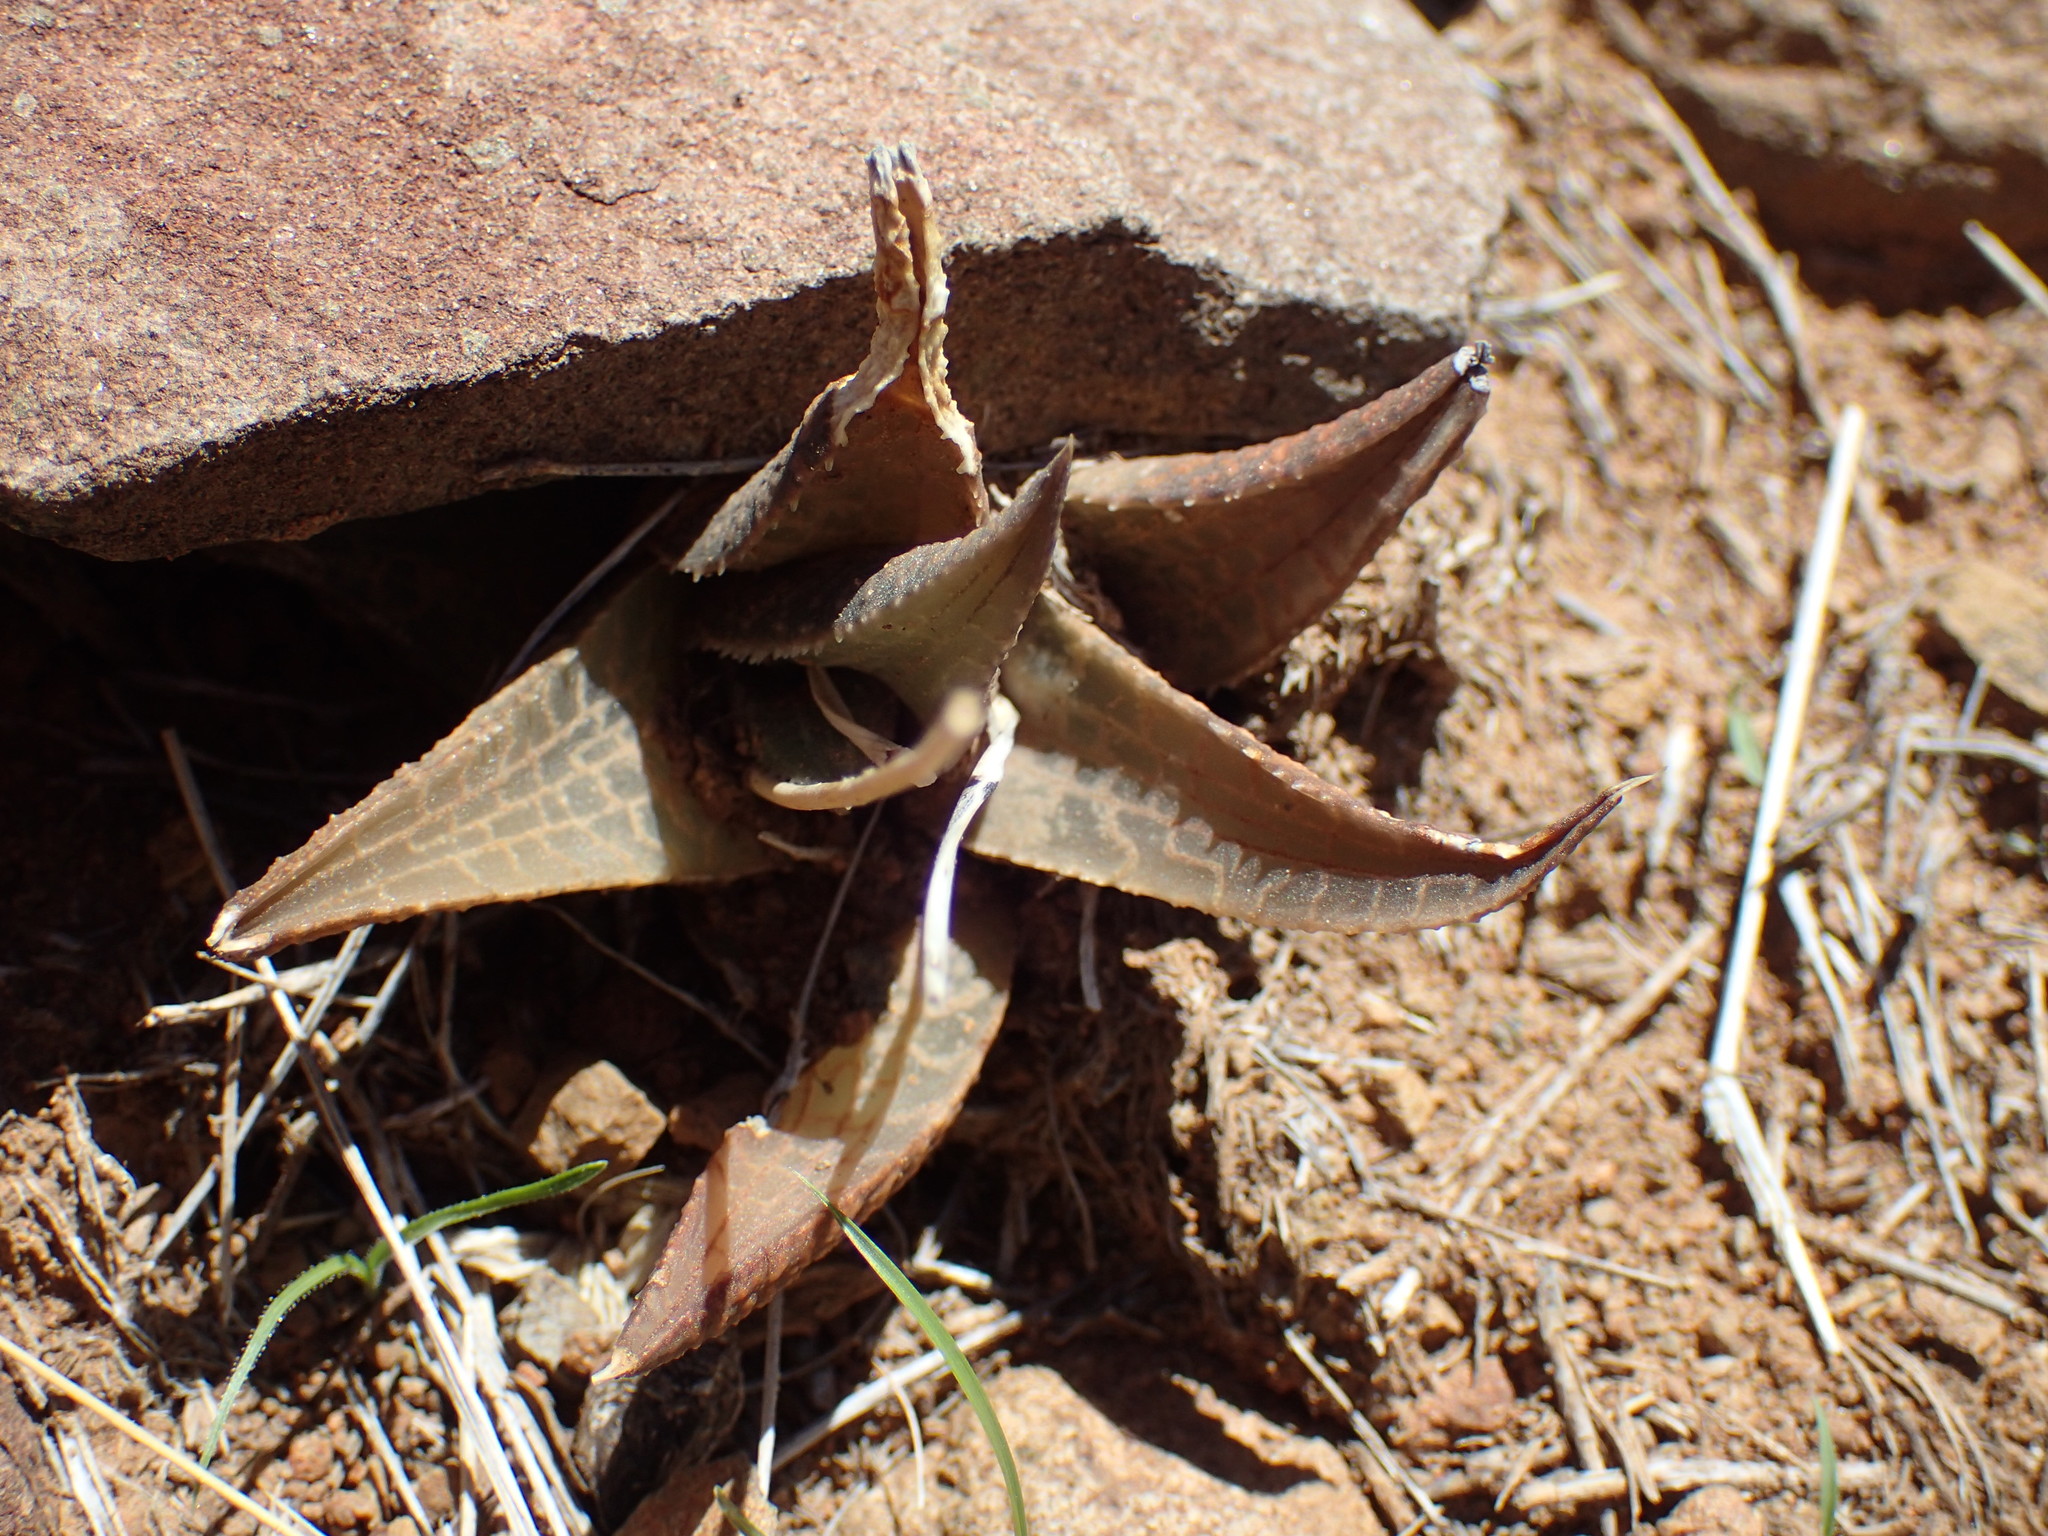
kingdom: Plantae
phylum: Tracheophyta
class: Liliopsida
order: Asparagales
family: Asphodelaceae
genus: Haworthiopsis
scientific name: Haworthiopsis tessellata
